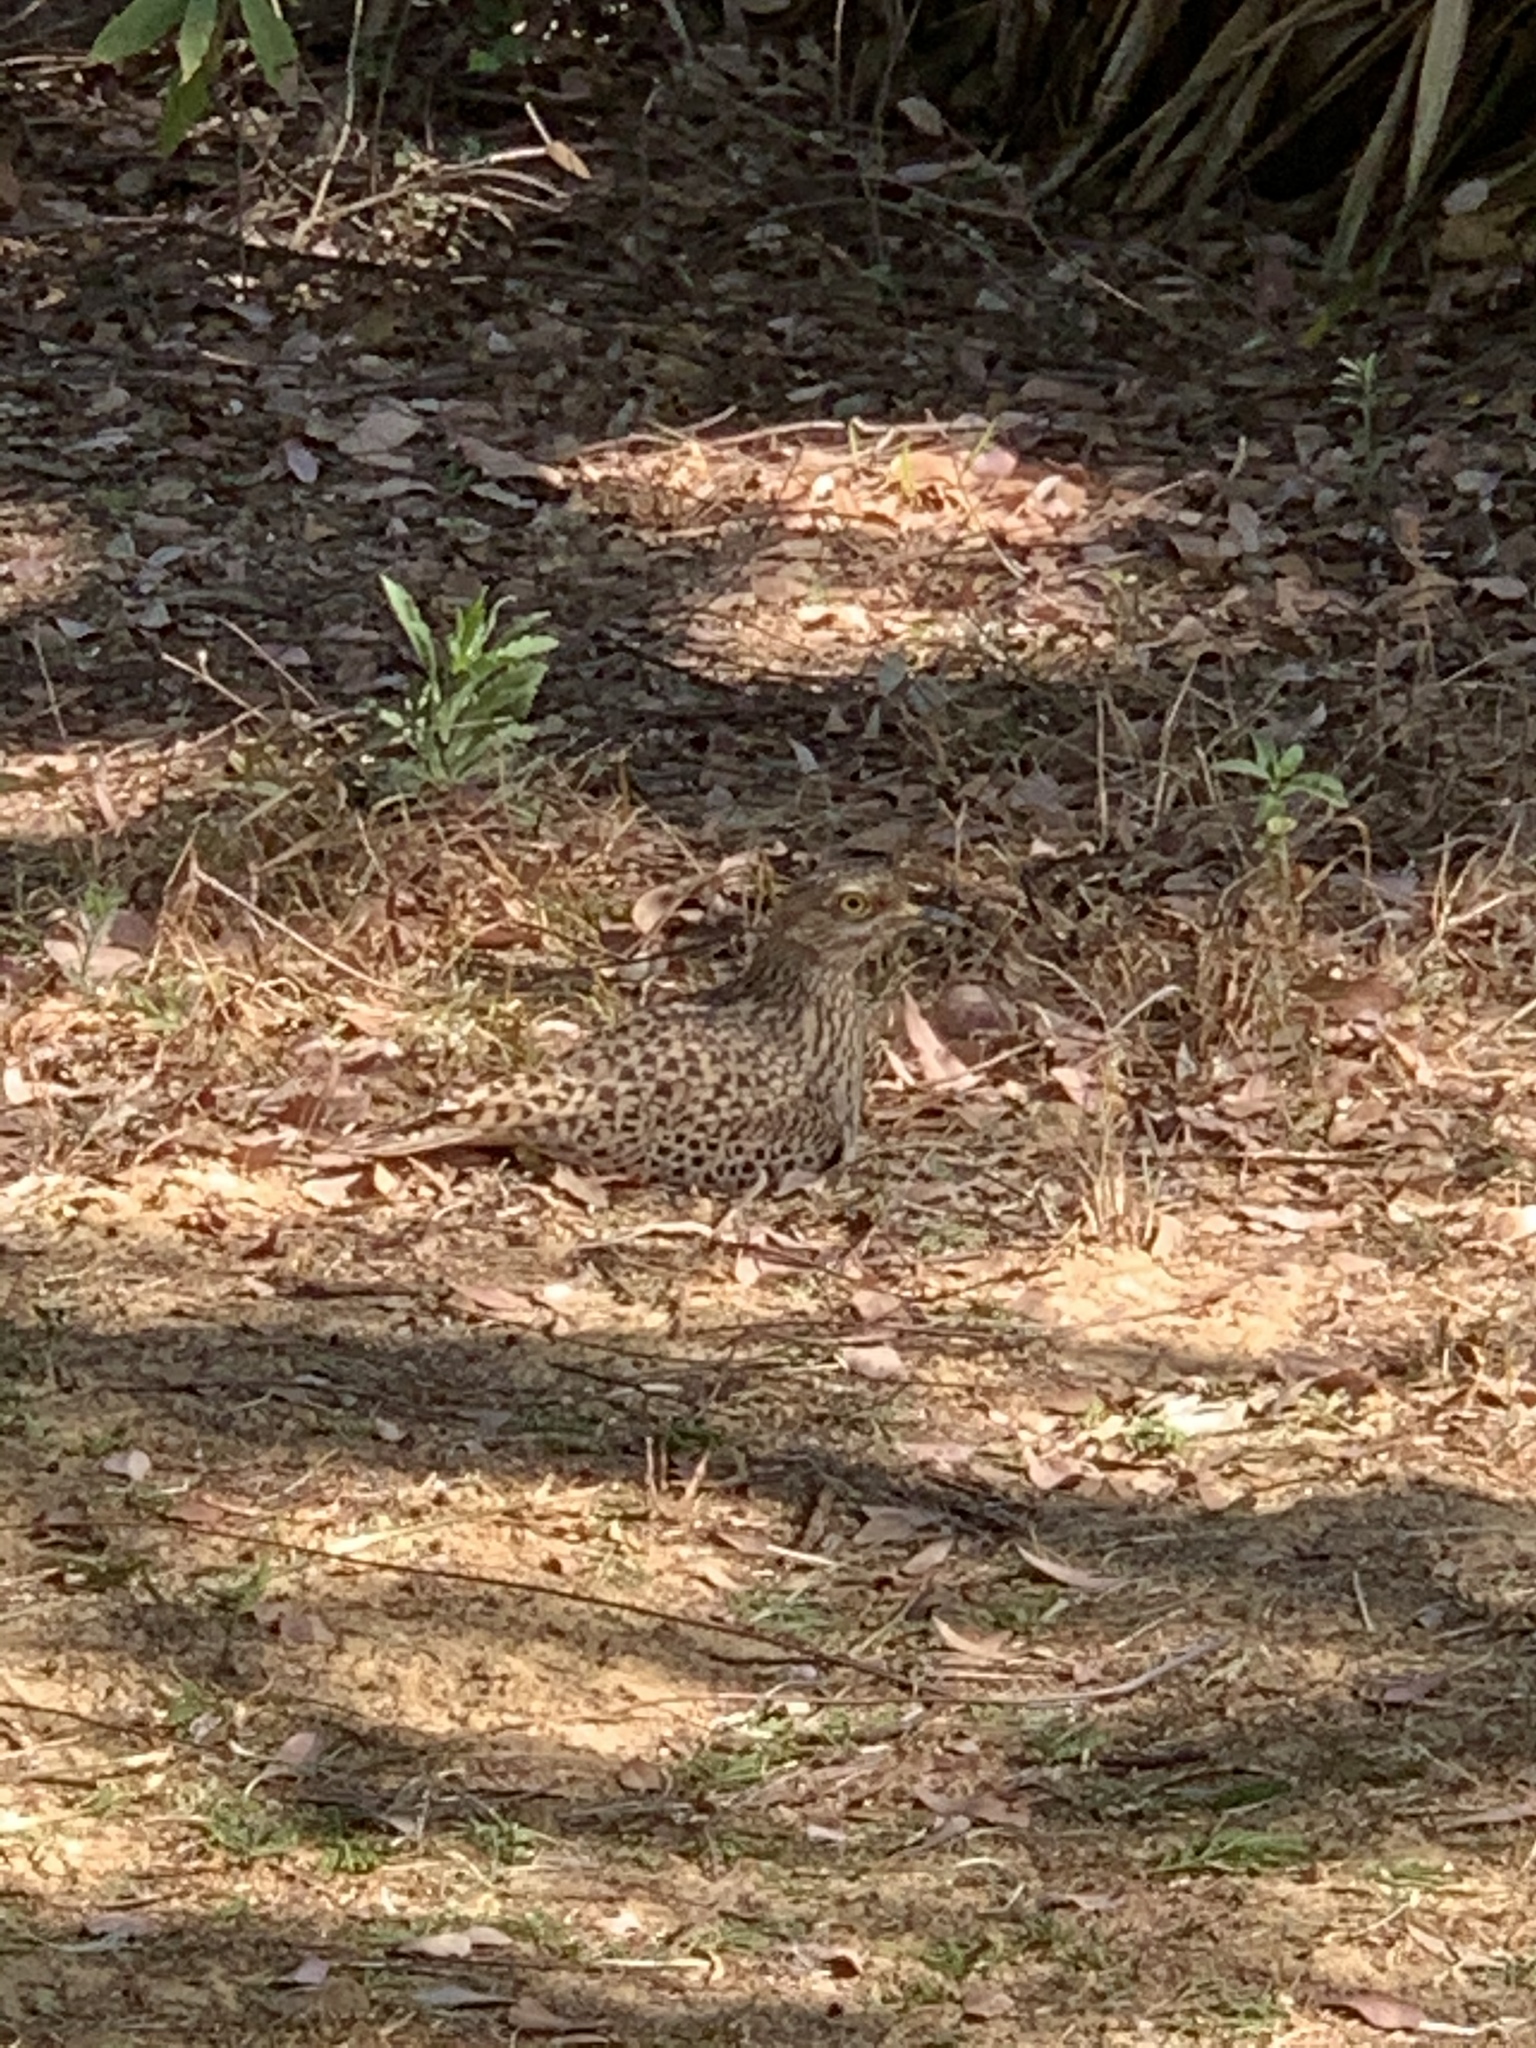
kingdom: Animalia
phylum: Chordata
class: Aves
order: Charadriiformes
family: Burhinidae
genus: Burhinus
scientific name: Burhinus capensis
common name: Spotted thick-knee
